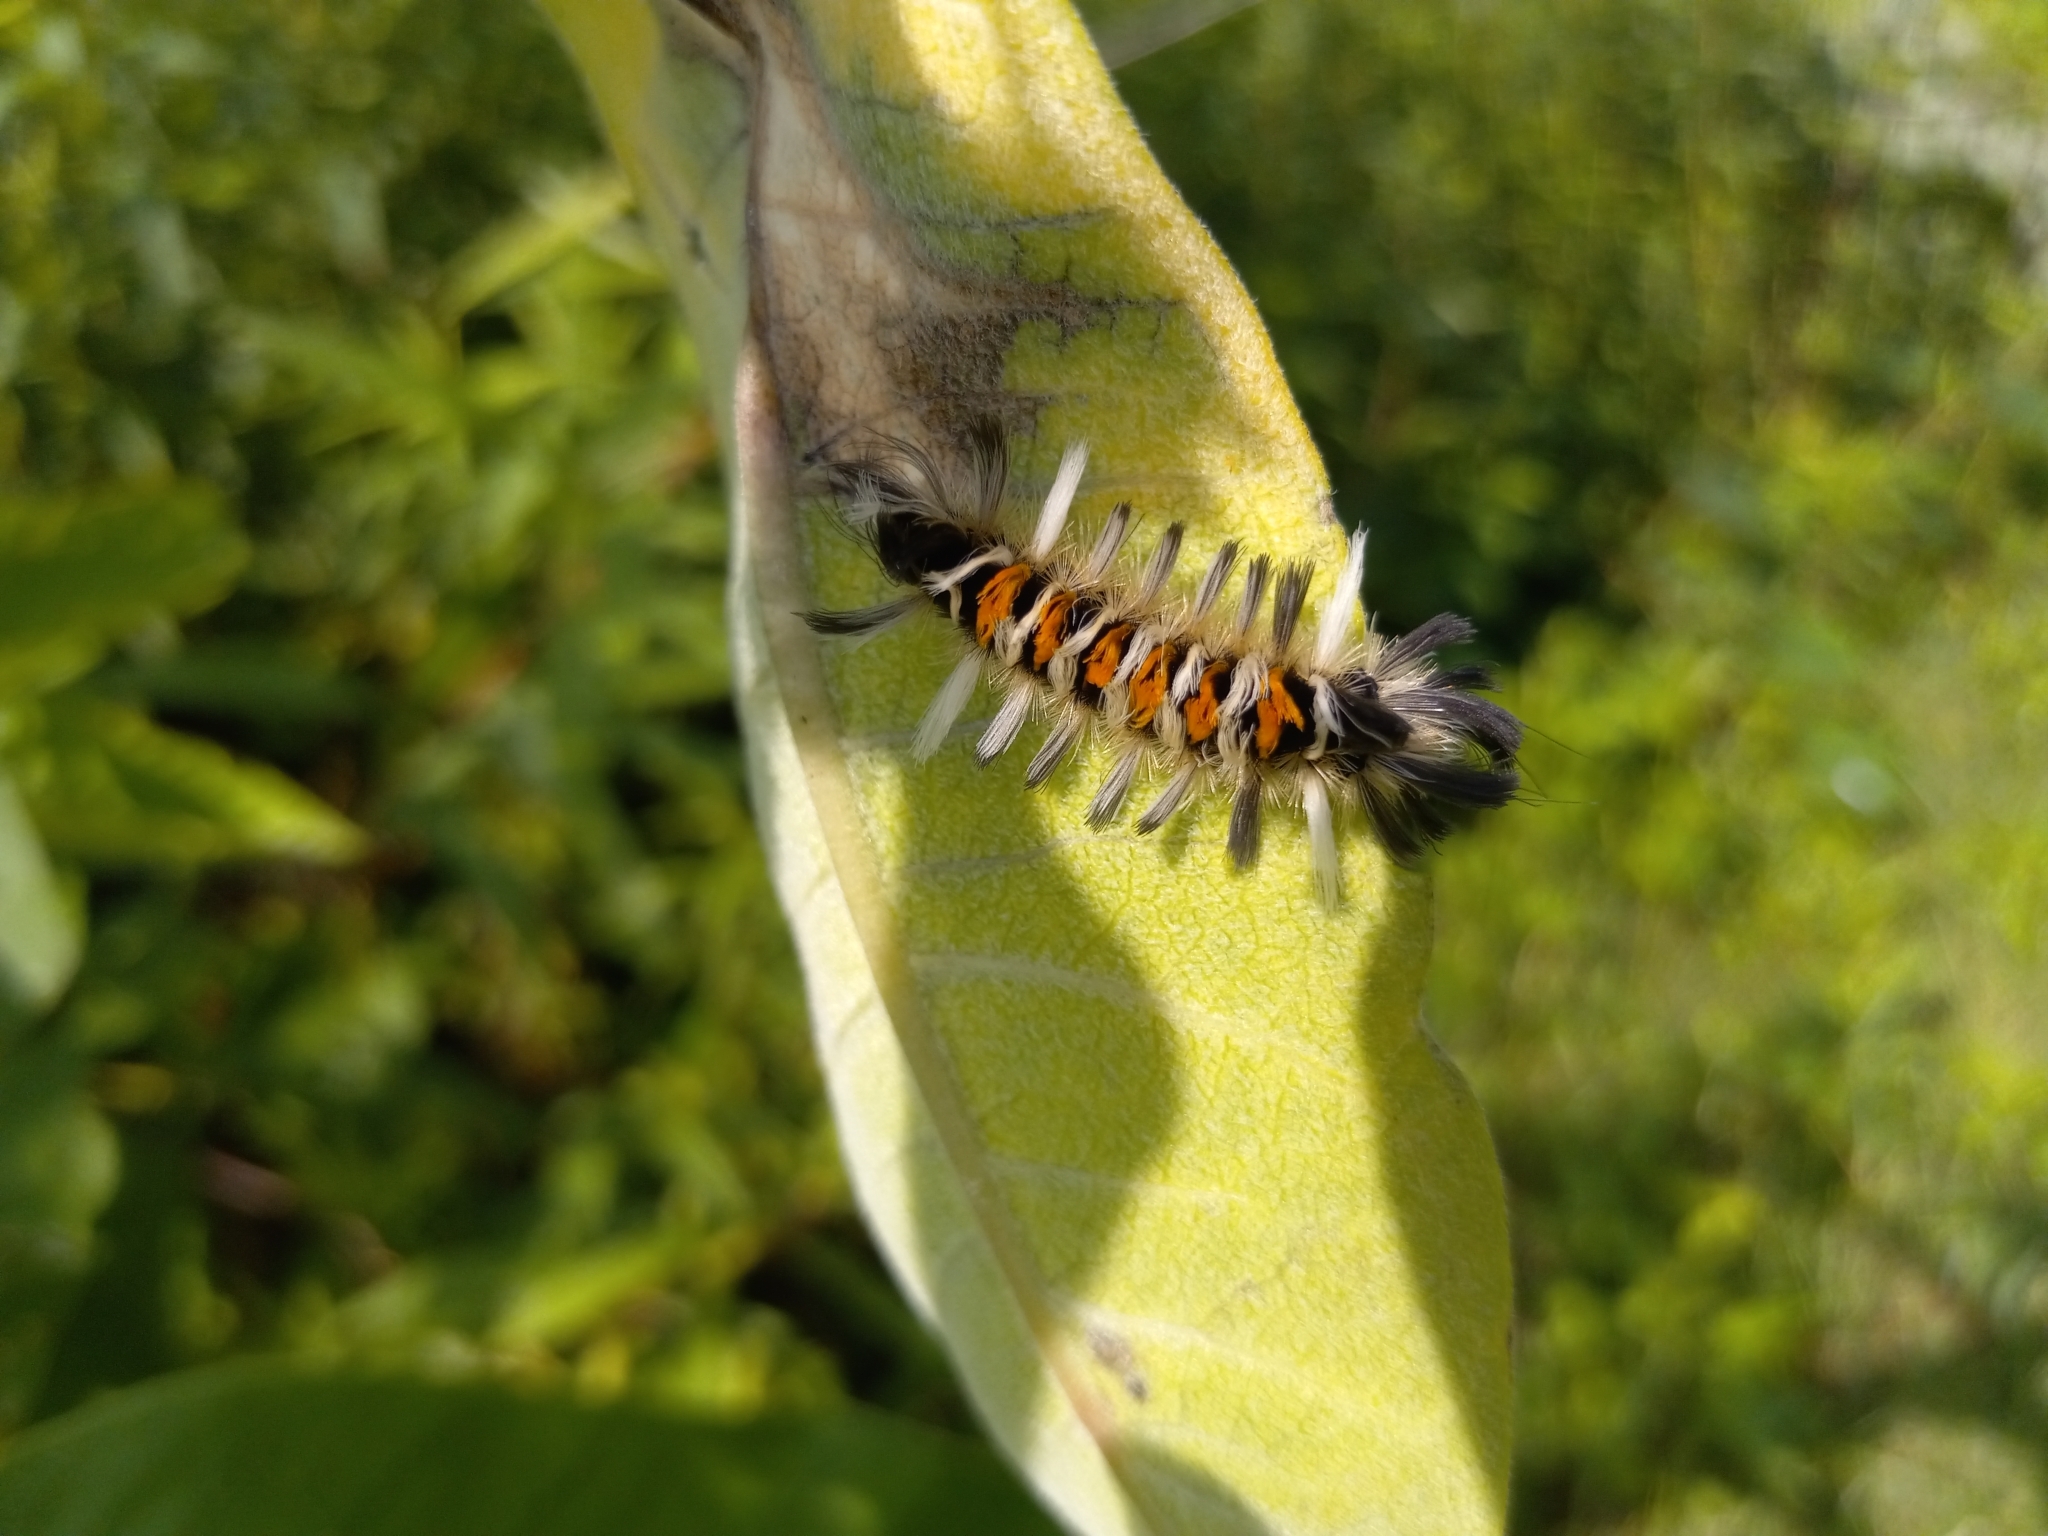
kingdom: Animalia
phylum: Arthropoda
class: Insecta
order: Lepidoptera
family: Erebidae
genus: Euchaetes
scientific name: Euchaetes egle
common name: Milkweed tussock moth
